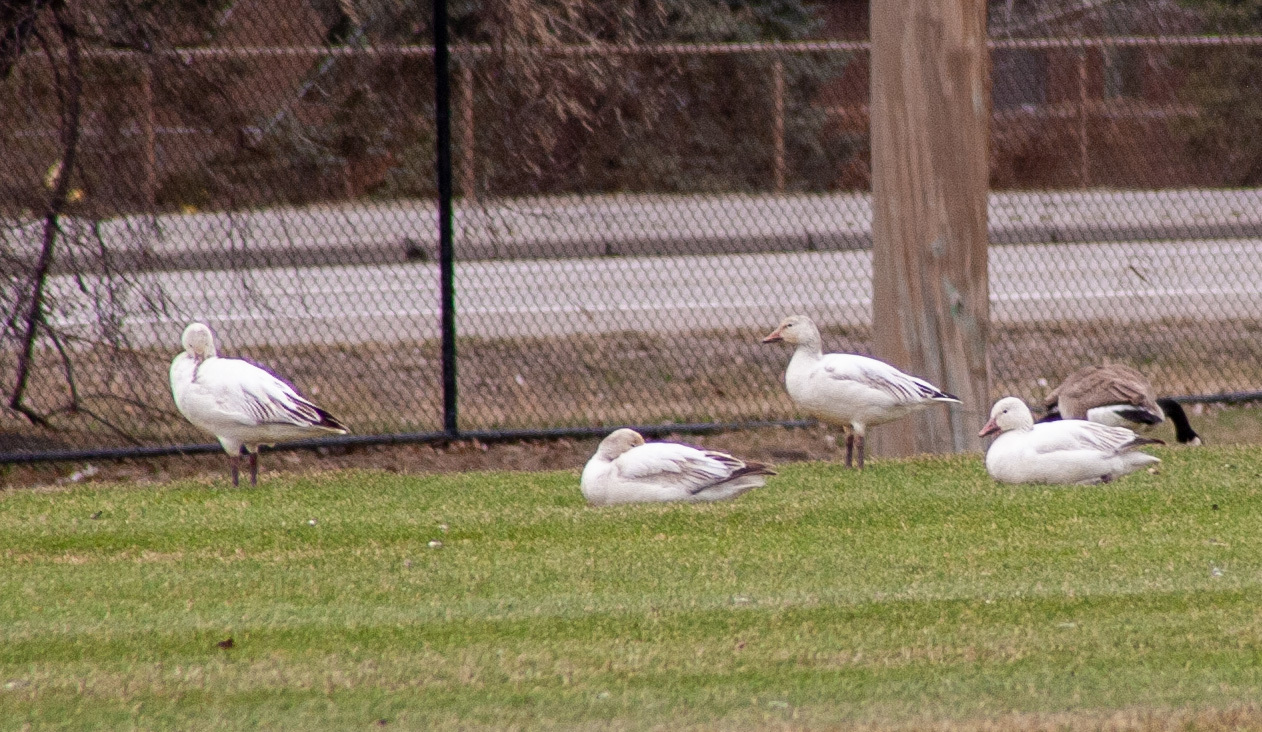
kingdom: Animalia
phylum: Chordata
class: Aves
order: Anseriformes
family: Anatidae
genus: Anser
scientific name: Anser caerulescens
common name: Snow goose
